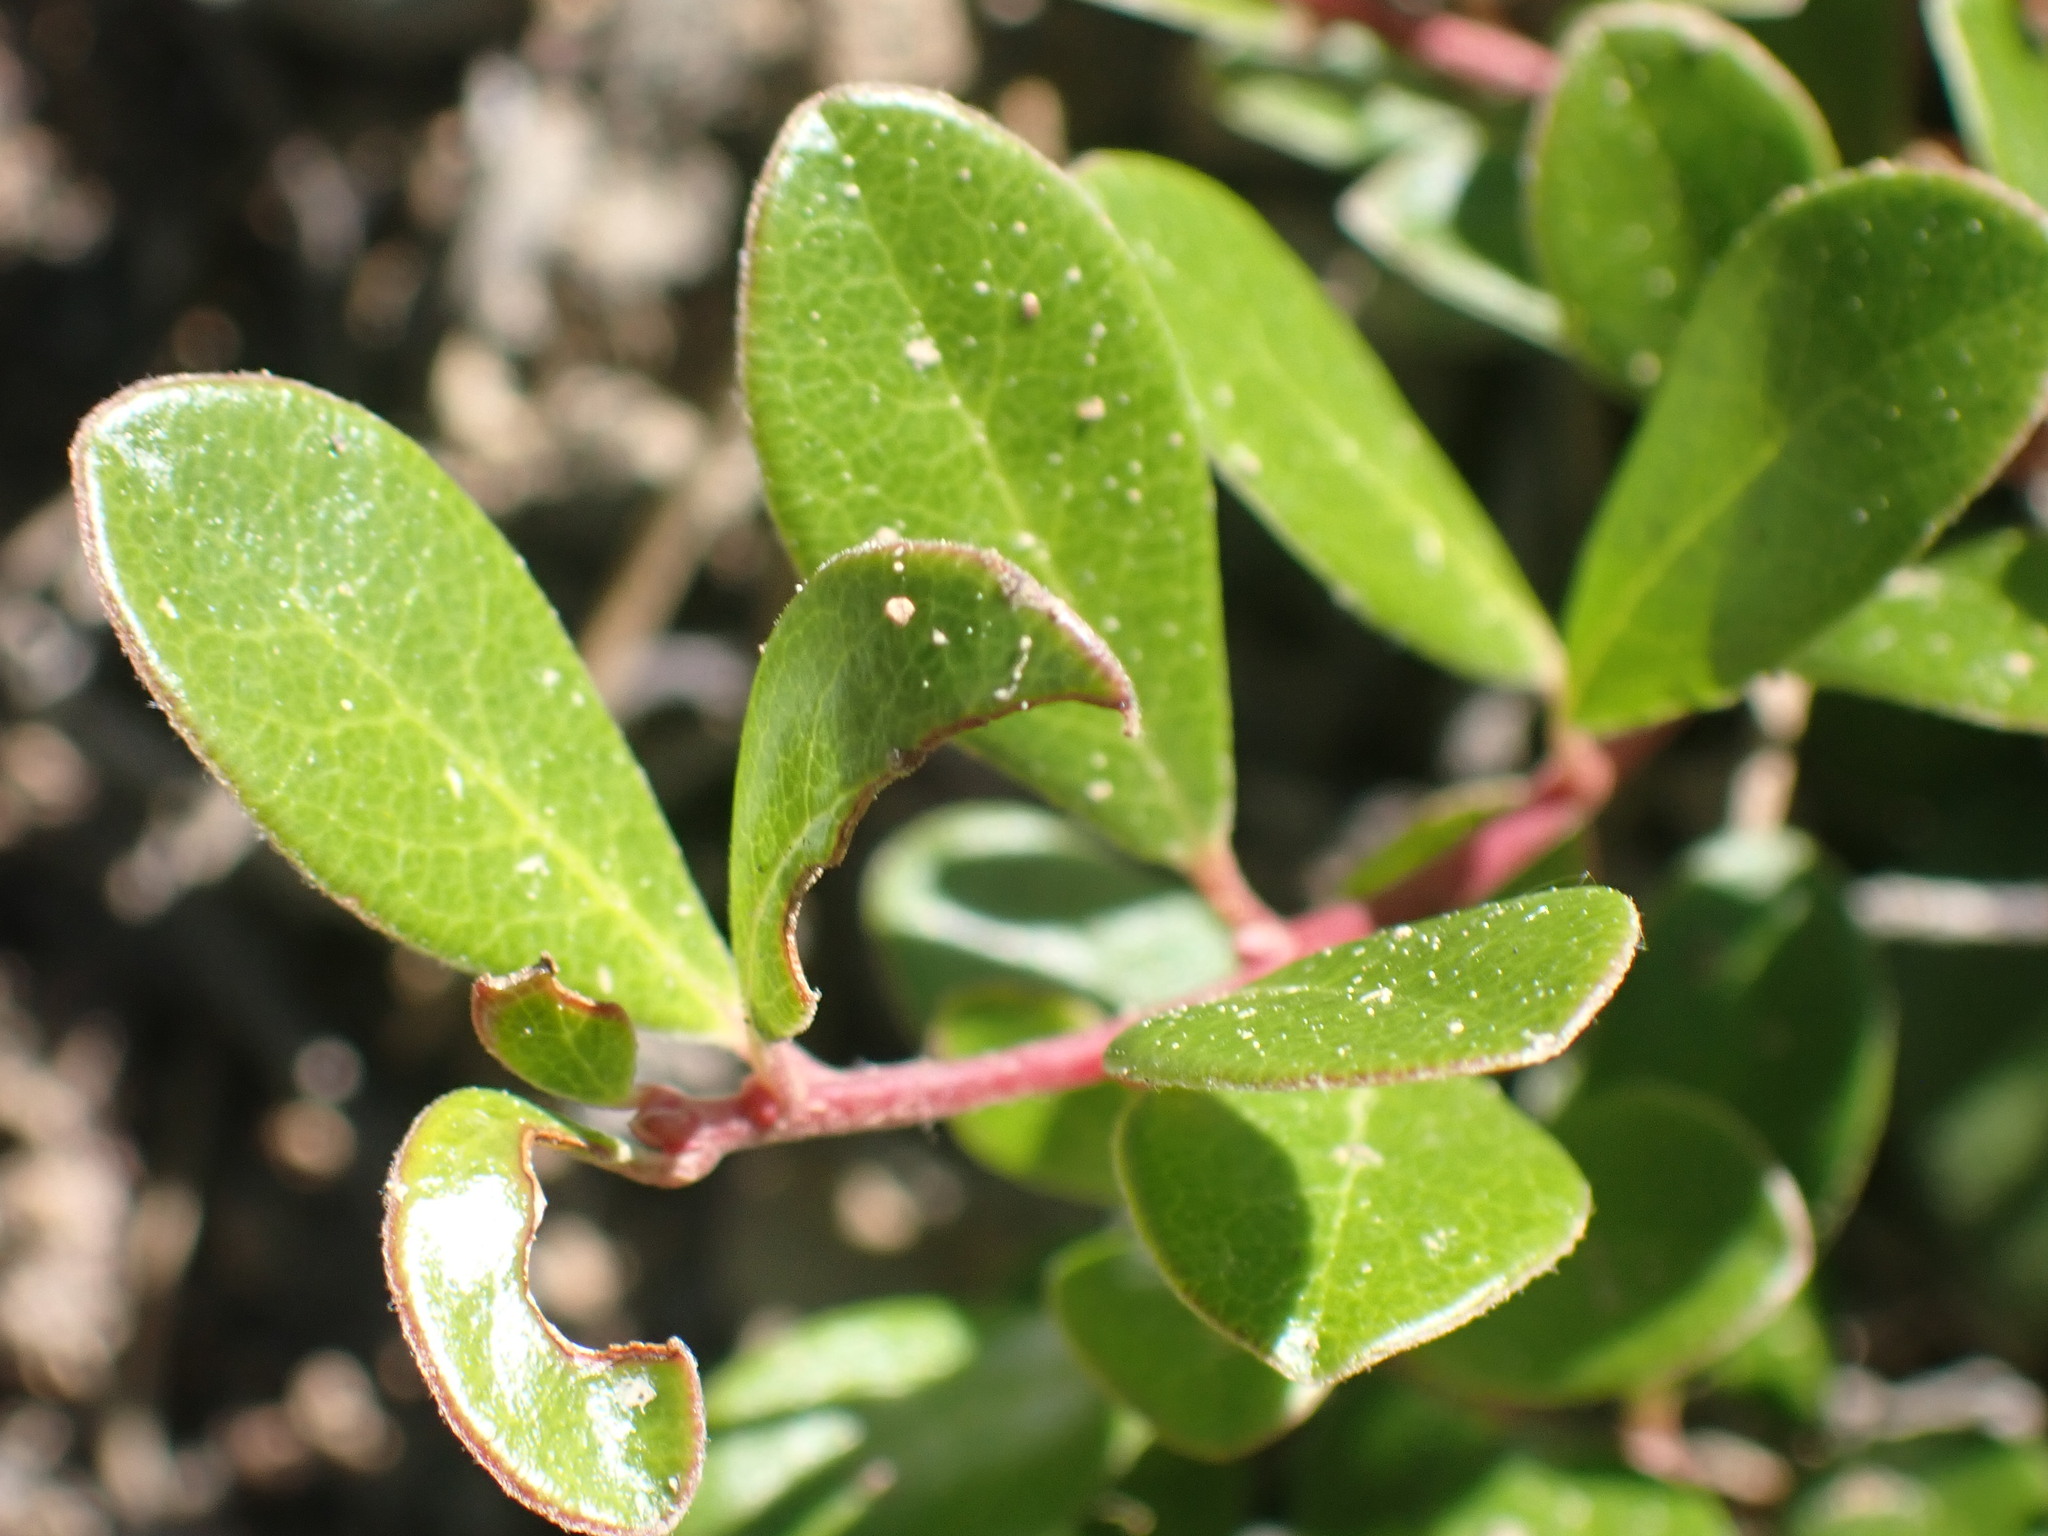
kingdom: Plantae
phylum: Tracheophyta
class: Magnoliopsida
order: Ericales
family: Ericaceae
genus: Arctostaphylos
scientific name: Arctostaphylos uva-ursi
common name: Bearberry
